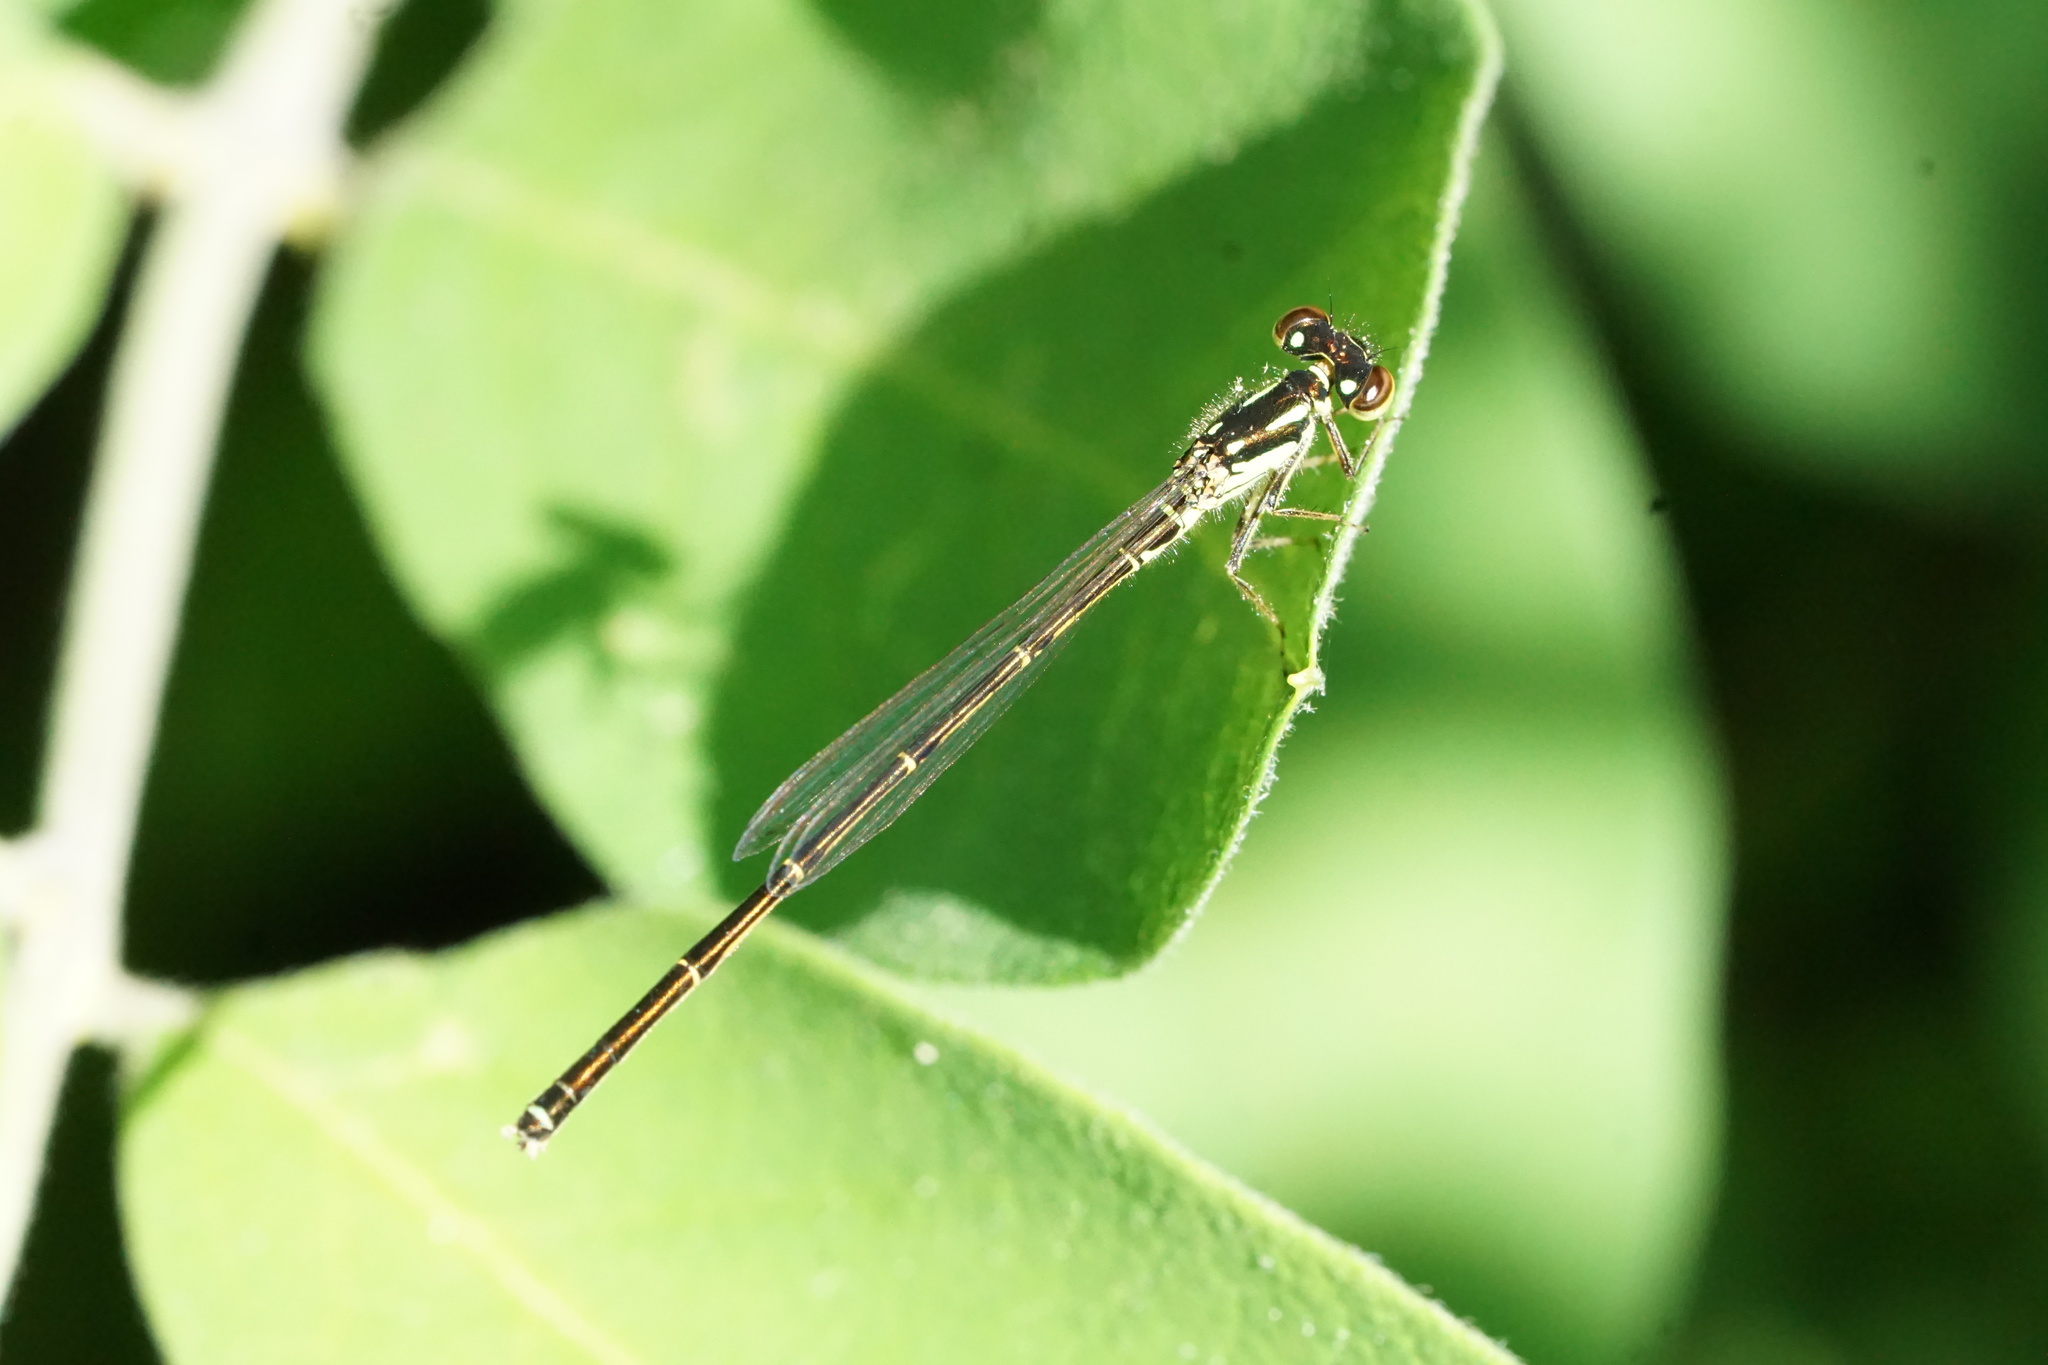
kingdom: Animalia
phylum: Arthropoda
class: Insecta
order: Odonata
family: Coenagrionidae
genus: Ischnura
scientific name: Ischnura posita
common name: Fragile forktail
